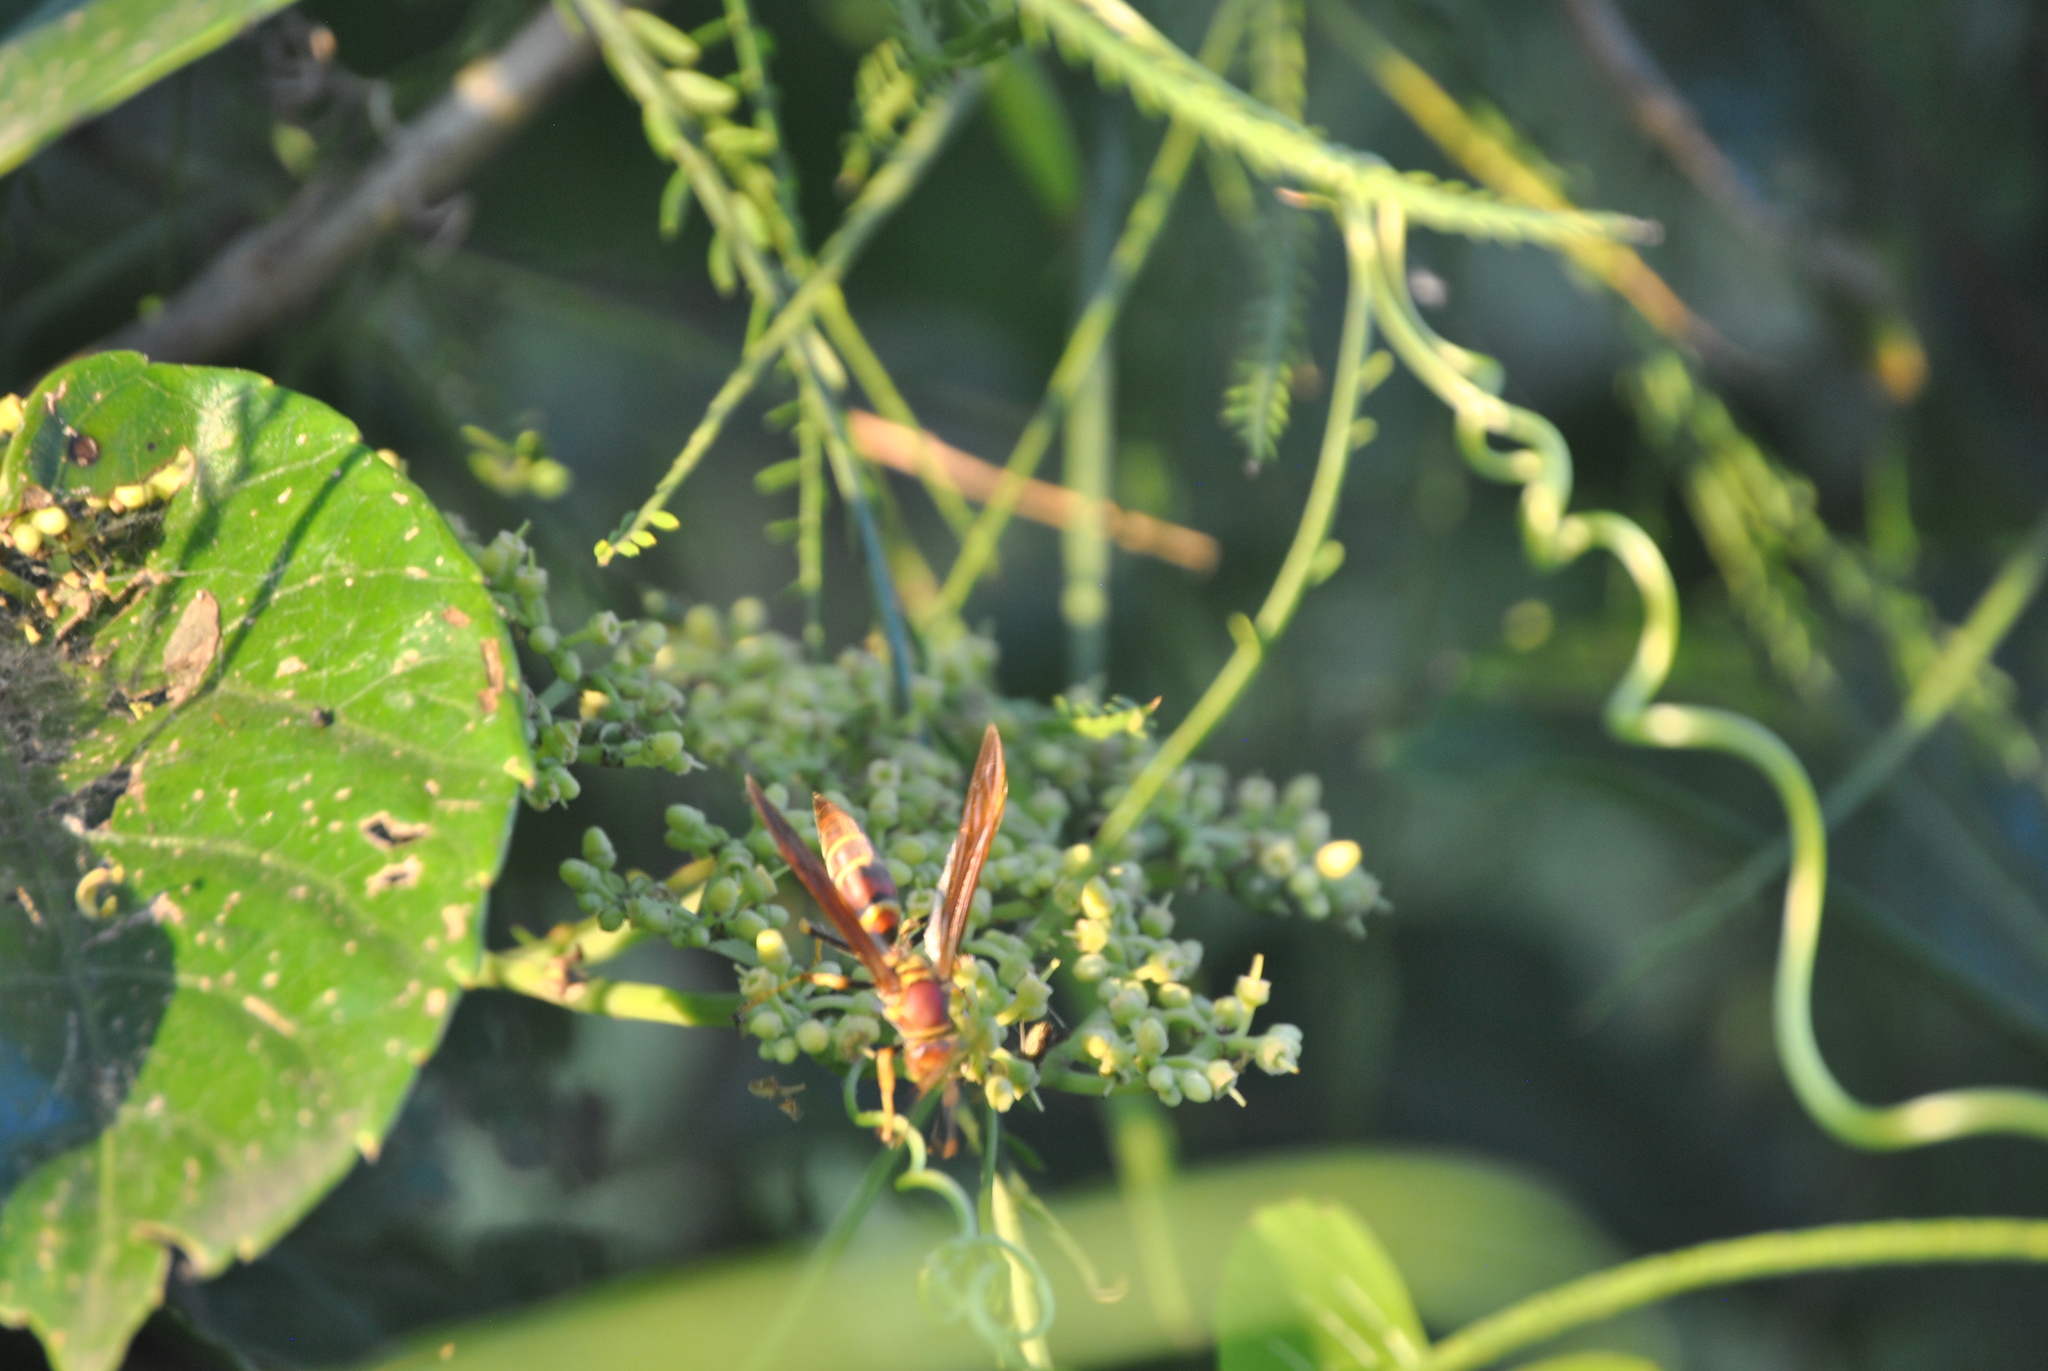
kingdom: Animalia
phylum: Arthropoda
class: Insecta
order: Hymenoptera
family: Eumenidae
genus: Polistes
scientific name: Polistes instabilis
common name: Unstable paper wasp
